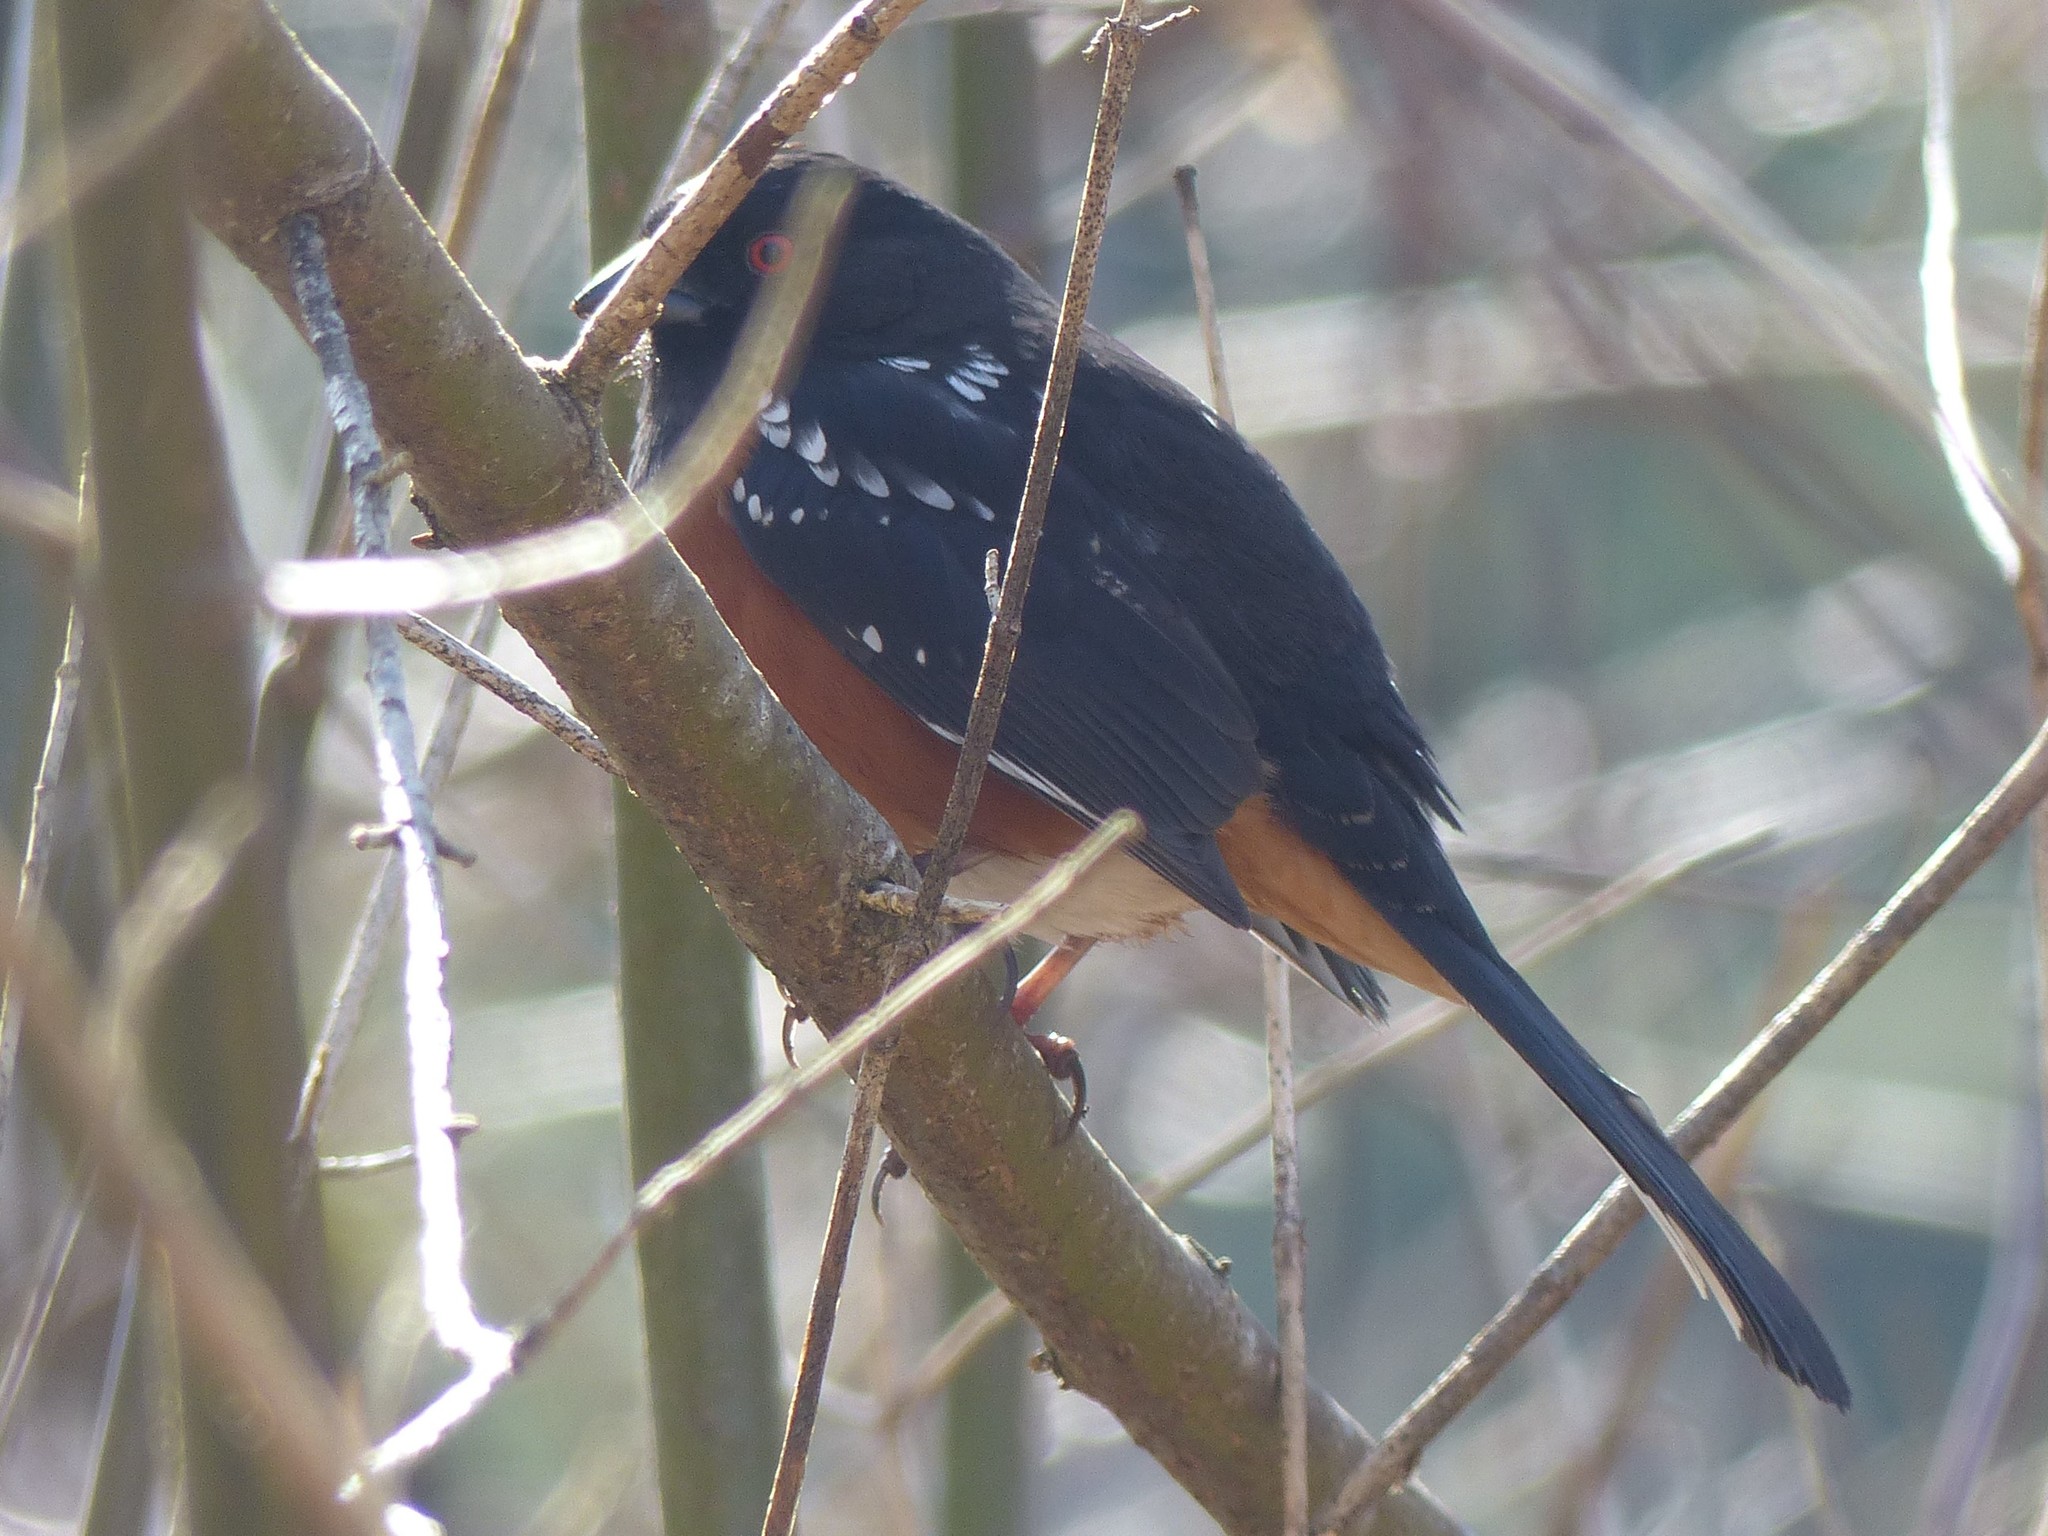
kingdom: Animalia
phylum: Chordata
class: Aves
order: Passeriformes
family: Passerellidae
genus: Pipilo
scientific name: Pipilo maculatus
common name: Spotted towhee
